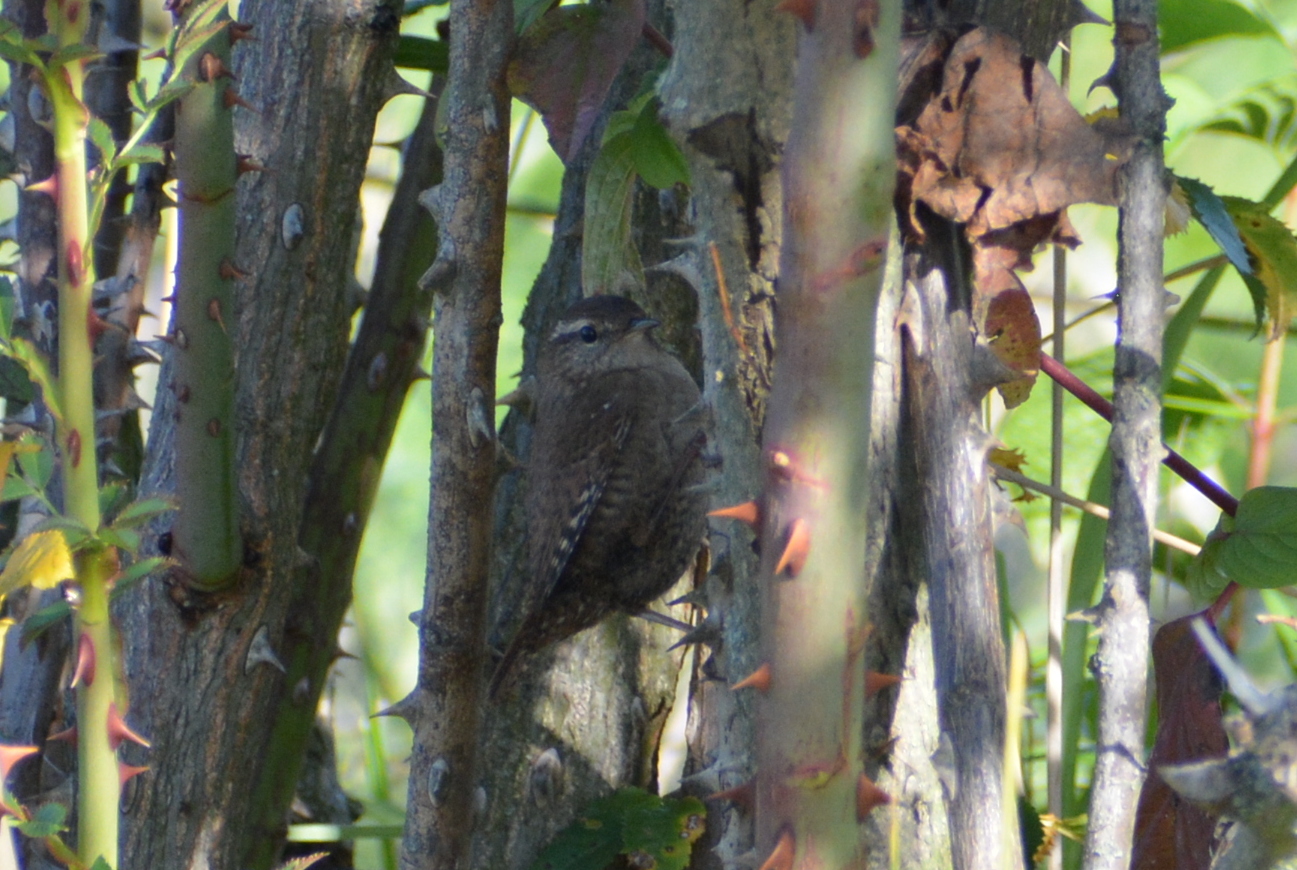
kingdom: Animalia
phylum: Chordata
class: Aves
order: Passeriformes
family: Troglodytidae
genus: Troglodytes
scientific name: Troglodytes troglodytes
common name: Eurasian wren
